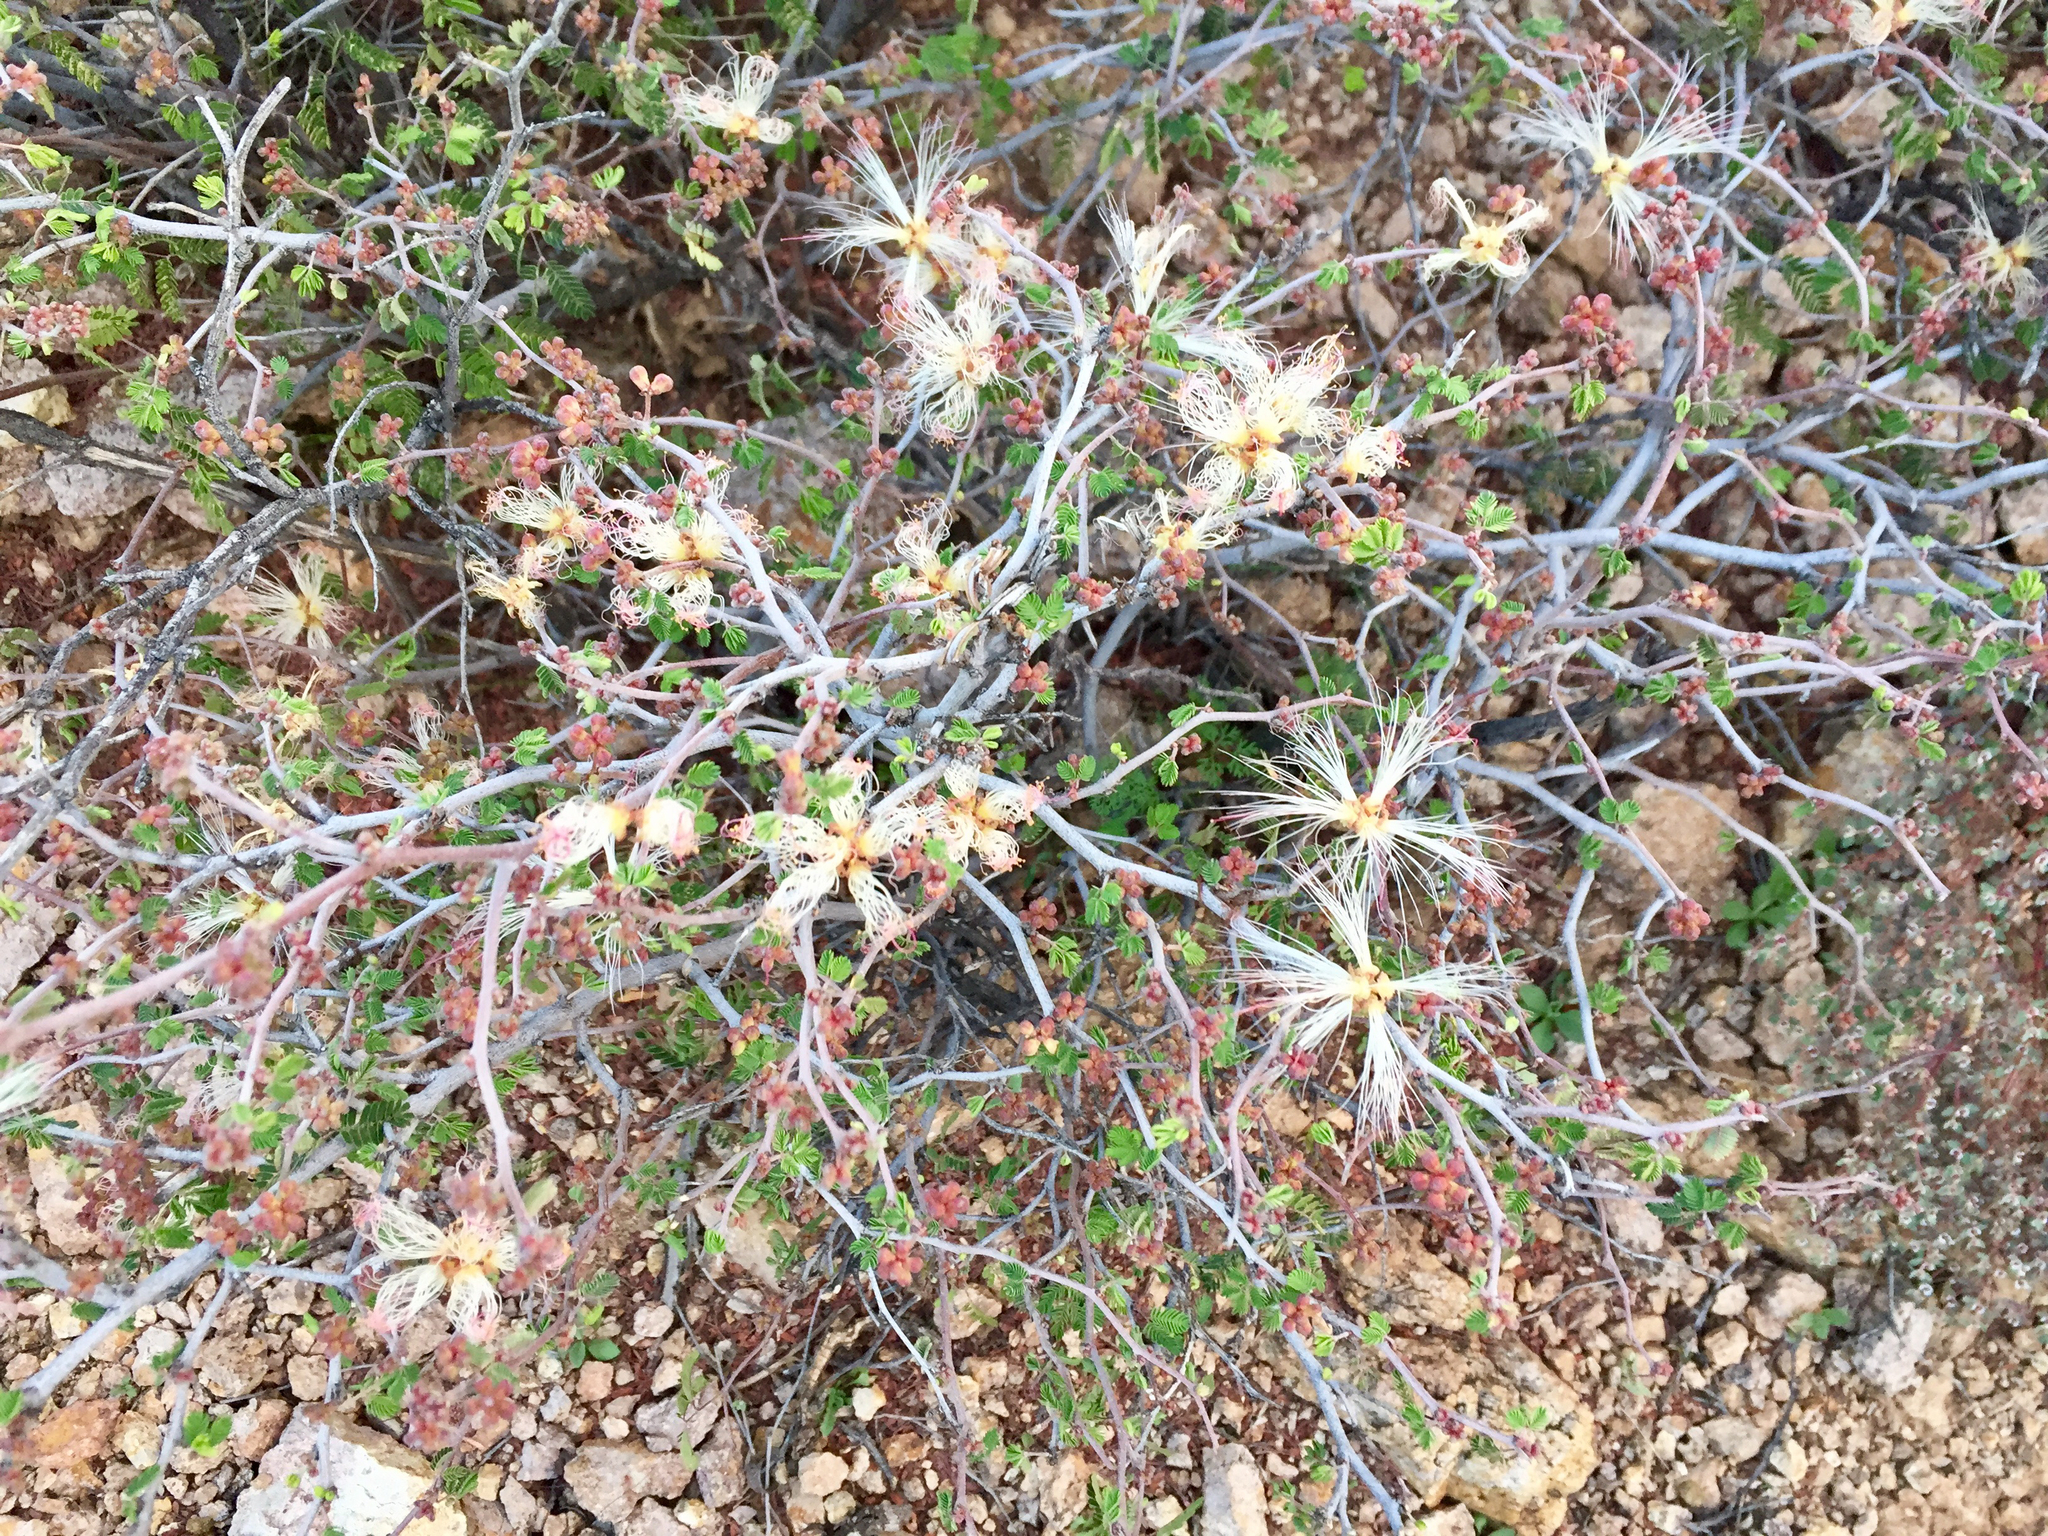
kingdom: Plantae
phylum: Tracheophyta
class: Magnoliopsida
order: Fabales
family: Fabaceae
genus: Calliandra
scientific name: Calliandra eriophylla
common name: Fairy-duster
